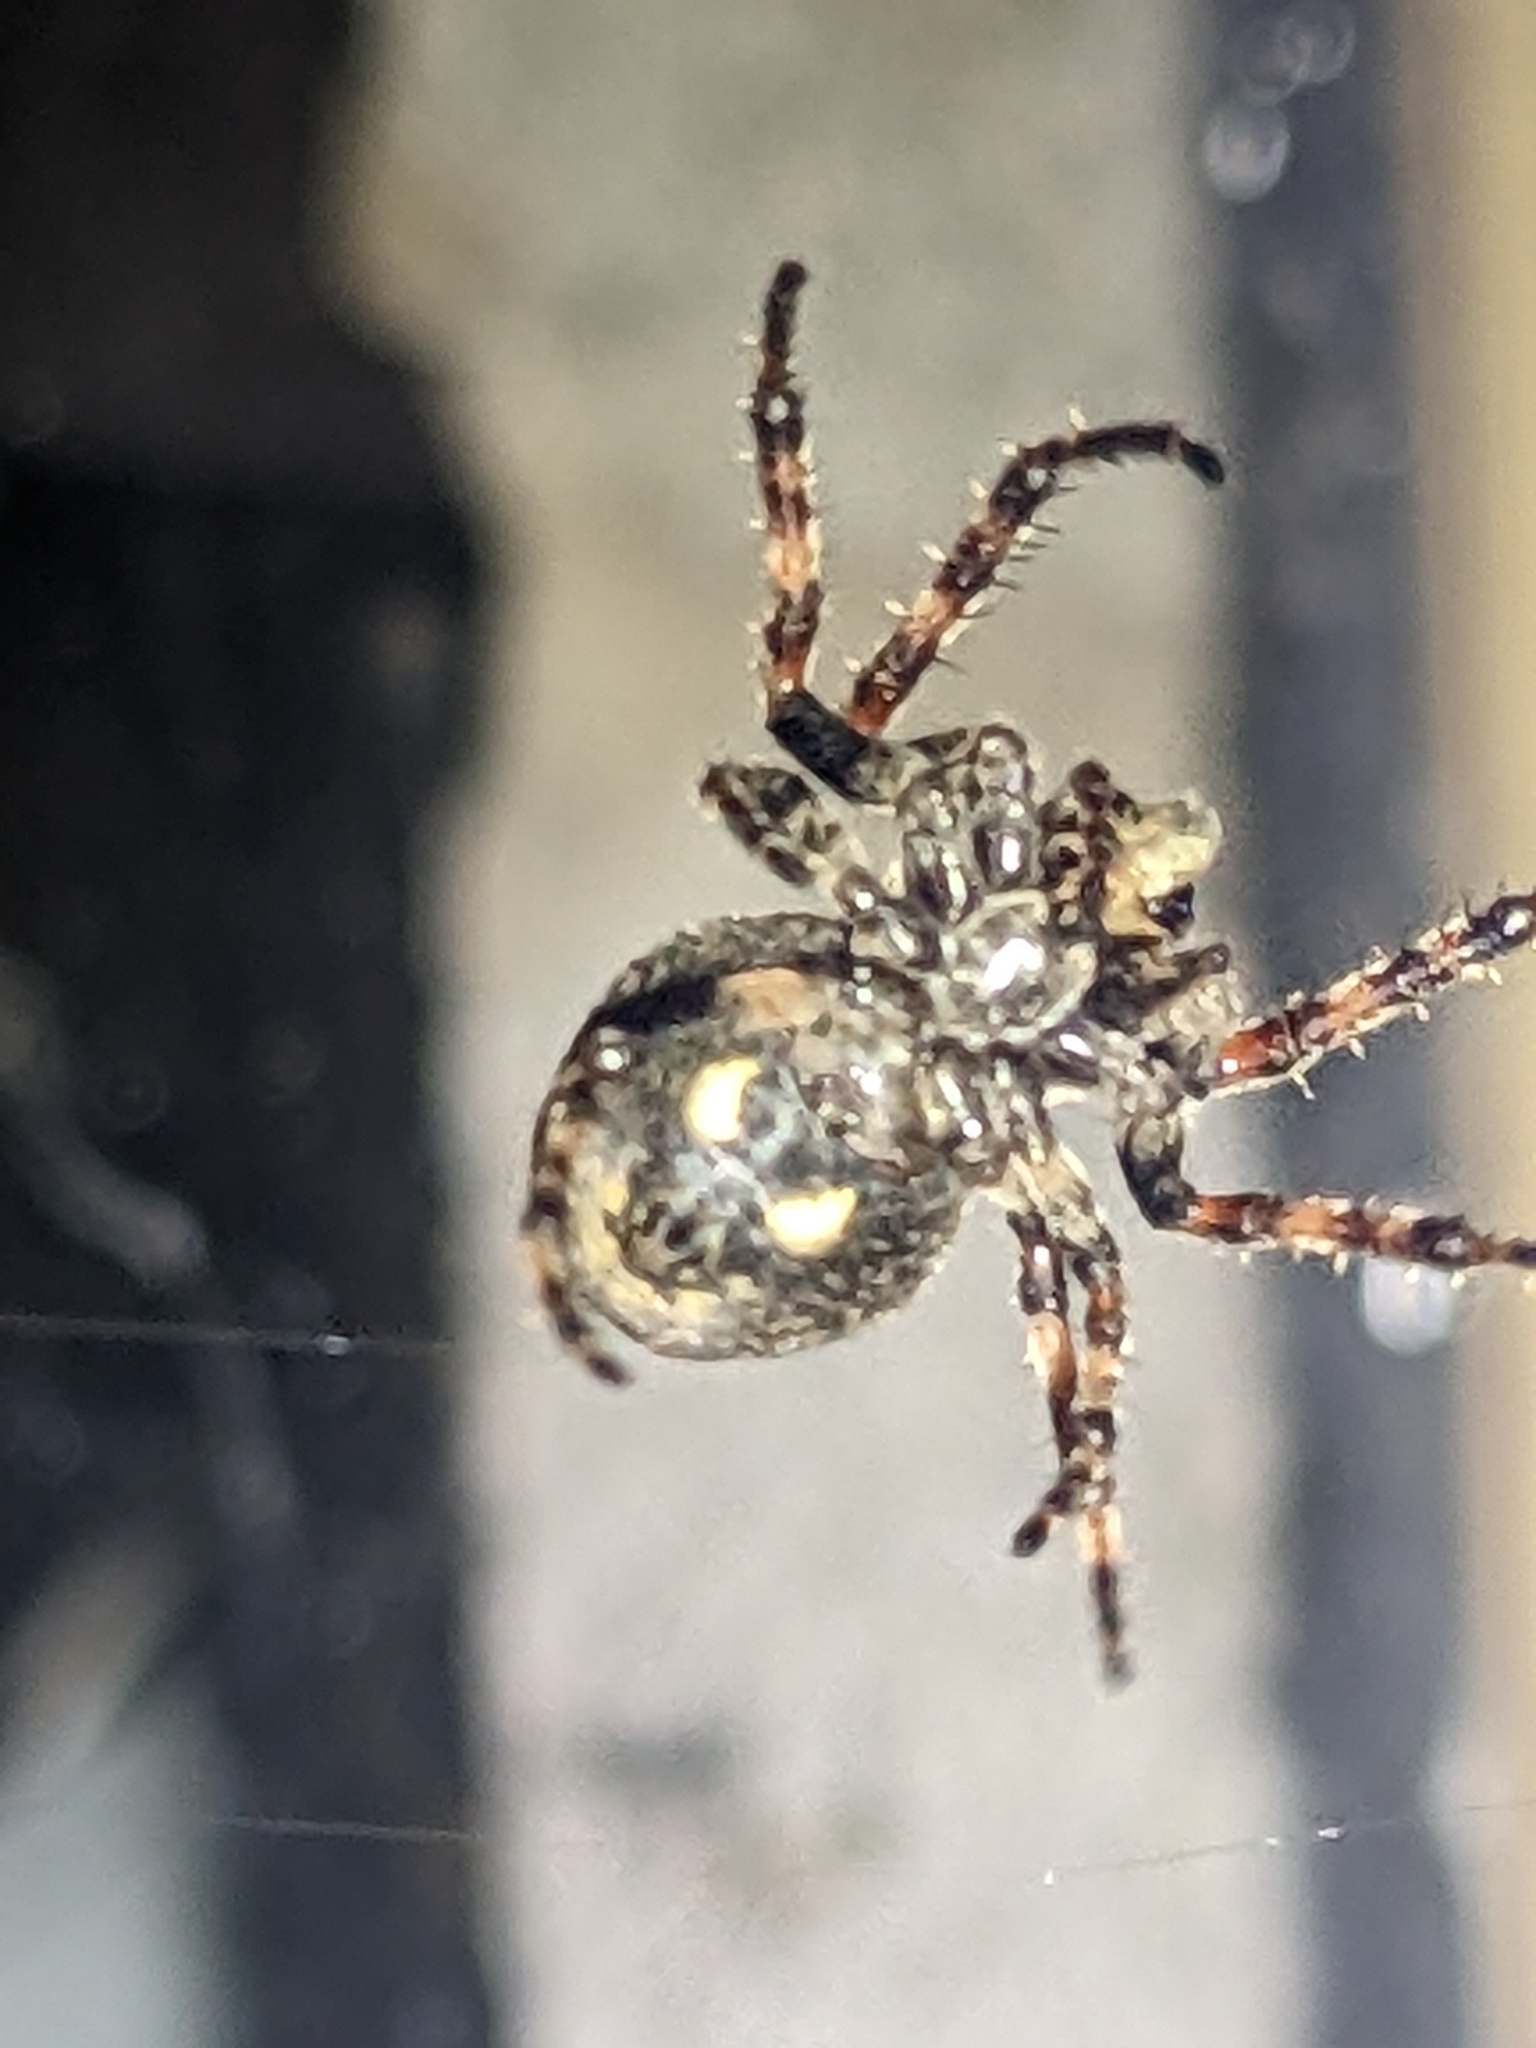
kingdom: Animalia
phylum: Arthropoda
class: Arachnida
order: Araneae
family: Araneidae
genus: Nuctenea
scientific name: Nuctenea umbratica
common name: Toad spider
